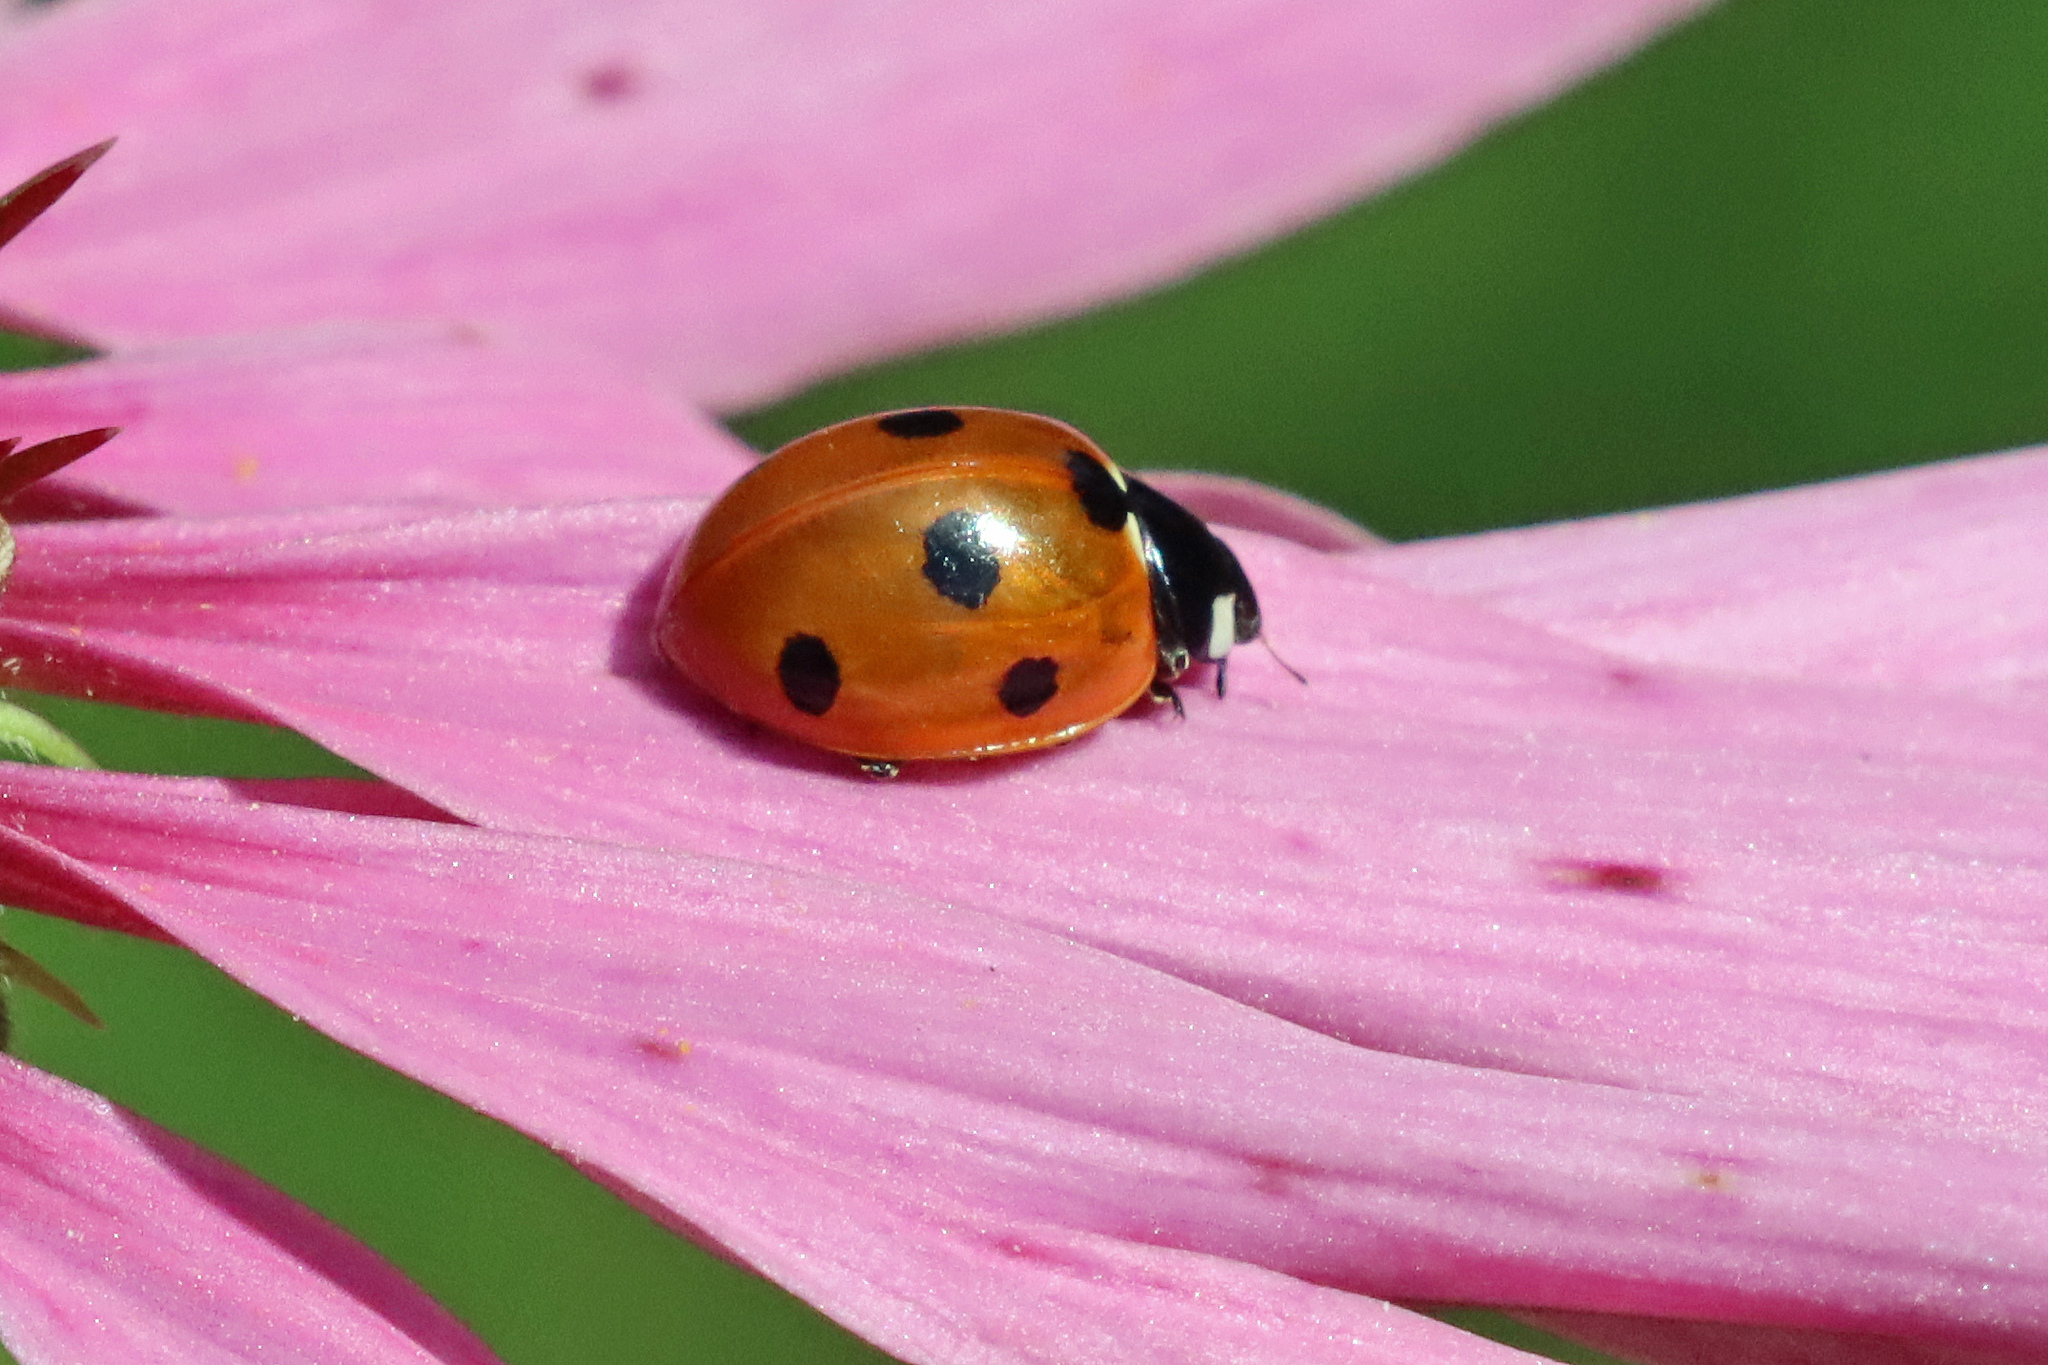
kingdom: Animalia
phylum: Arthropoda
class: Insecta
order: Coleoptera
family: Coccinellidae
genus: Coccinella
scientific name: Coccinella septempunctata
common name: Sevenspotted lady beetle
